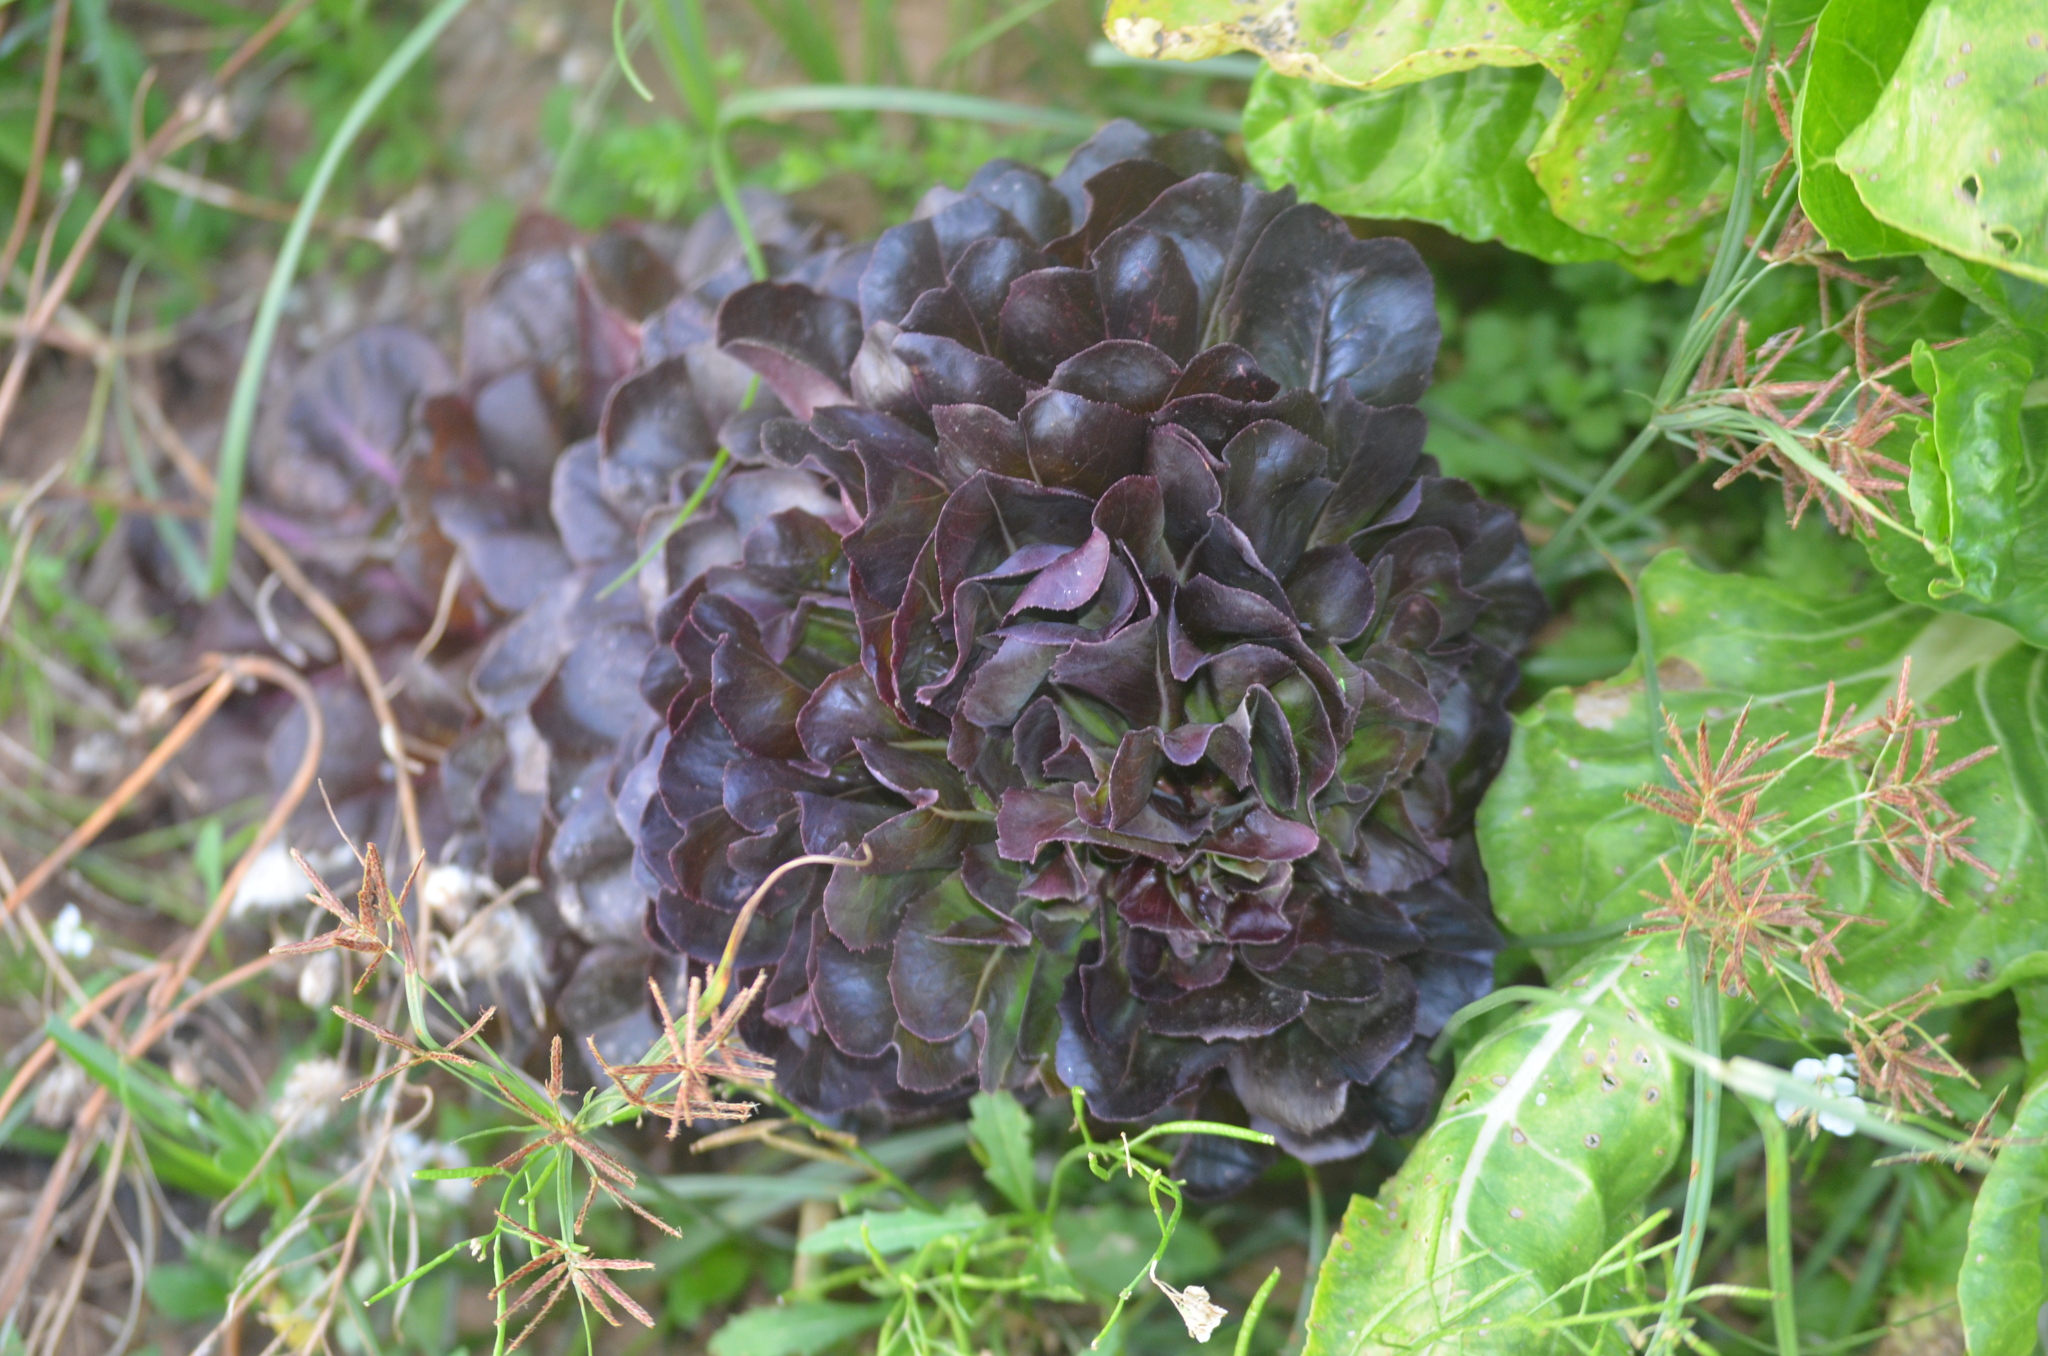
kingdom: Plantae
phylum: Tracheophyta
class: Magnoliopsida
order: Asterales
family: Asteraceae
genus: Lactuca
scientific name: Lactuca sativa
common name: Garden lettuce
